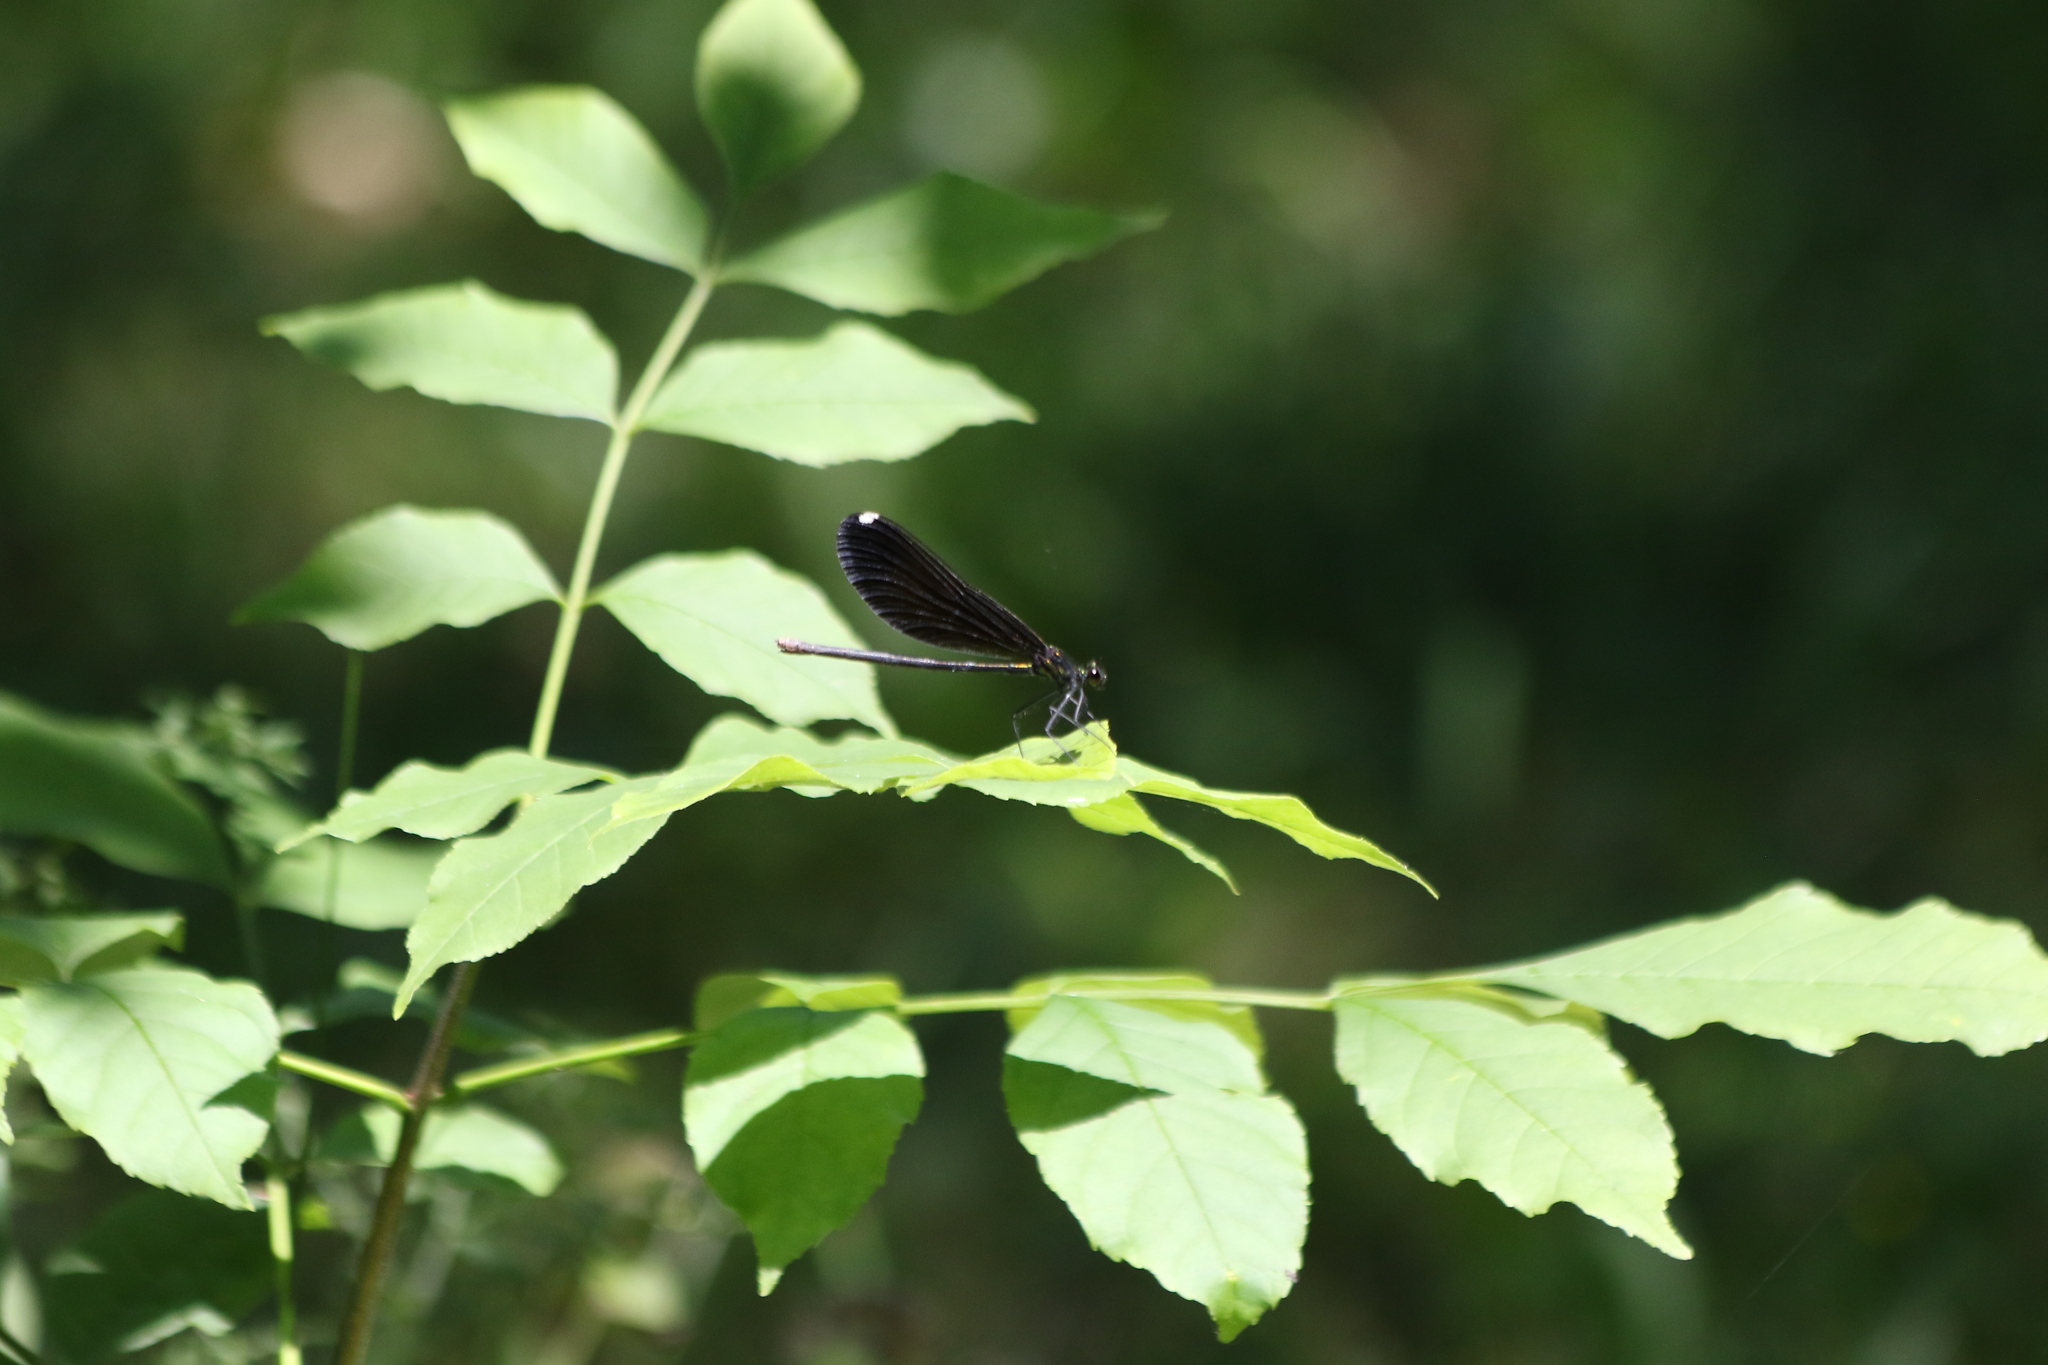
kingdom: Animalia
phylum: Arthropoda
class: Insecta
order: Odonata
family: Calopterygidae
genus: Calopteryx
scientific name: Calopteryx maculata
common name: Ebony jewelwing
